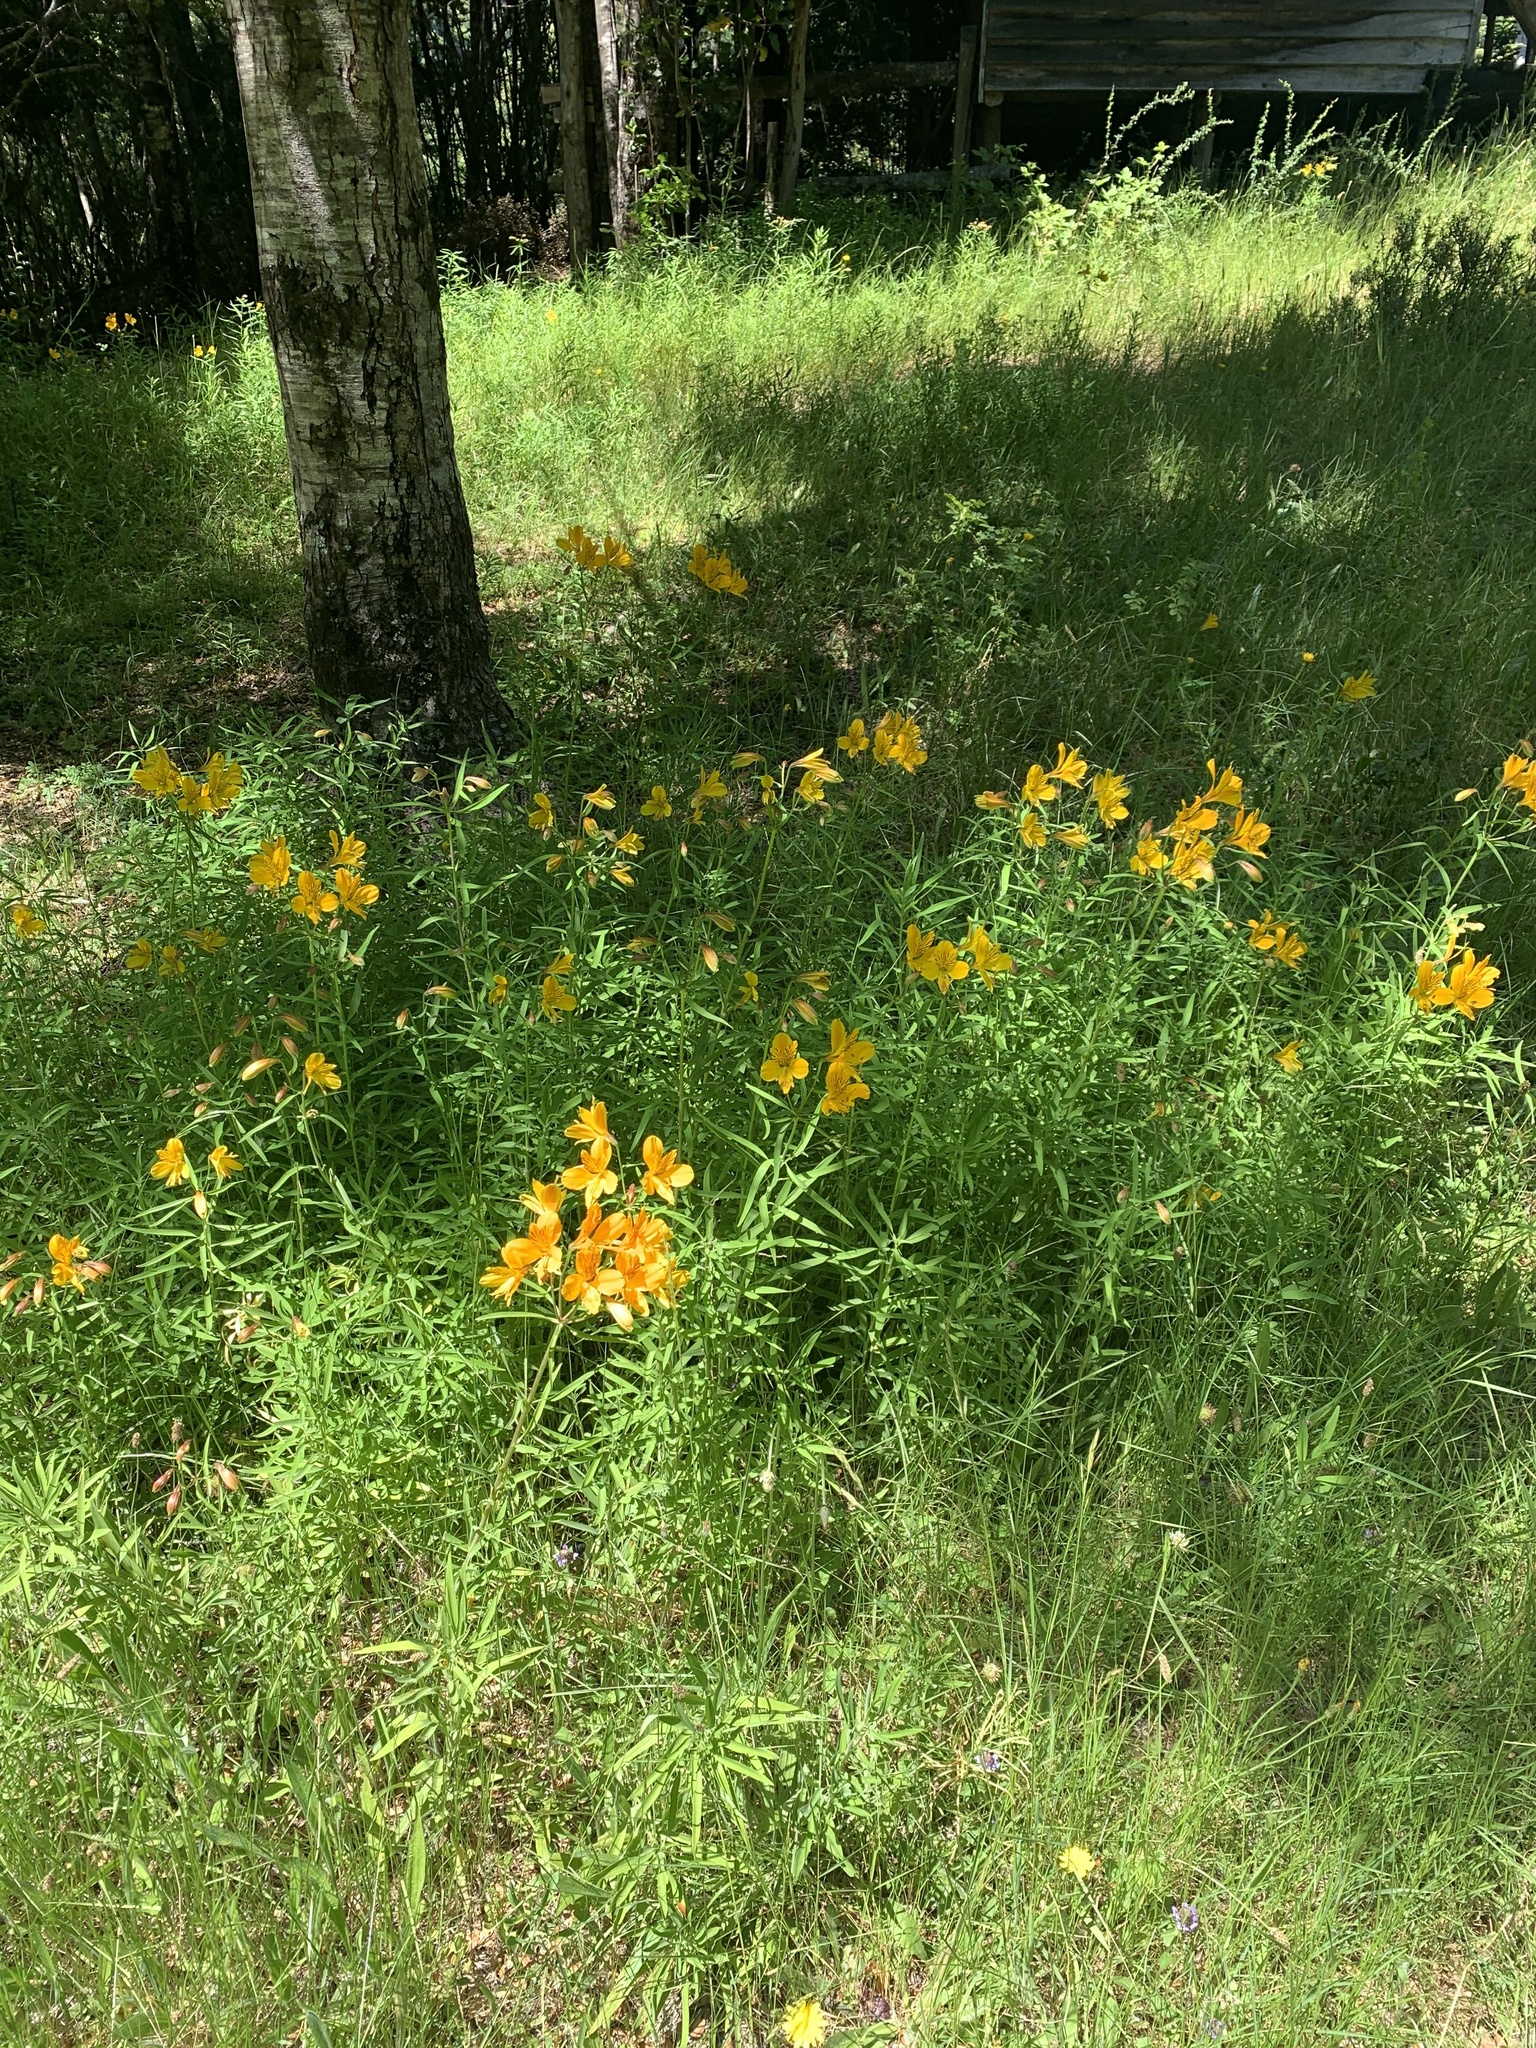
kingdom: Plantae
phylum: Tracheophyta
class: Liliopsida
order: Liliales
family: Alstroemeriaceae
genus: Alstroemeria
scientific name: Alstroemeria aurea
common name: Peruvian lily
